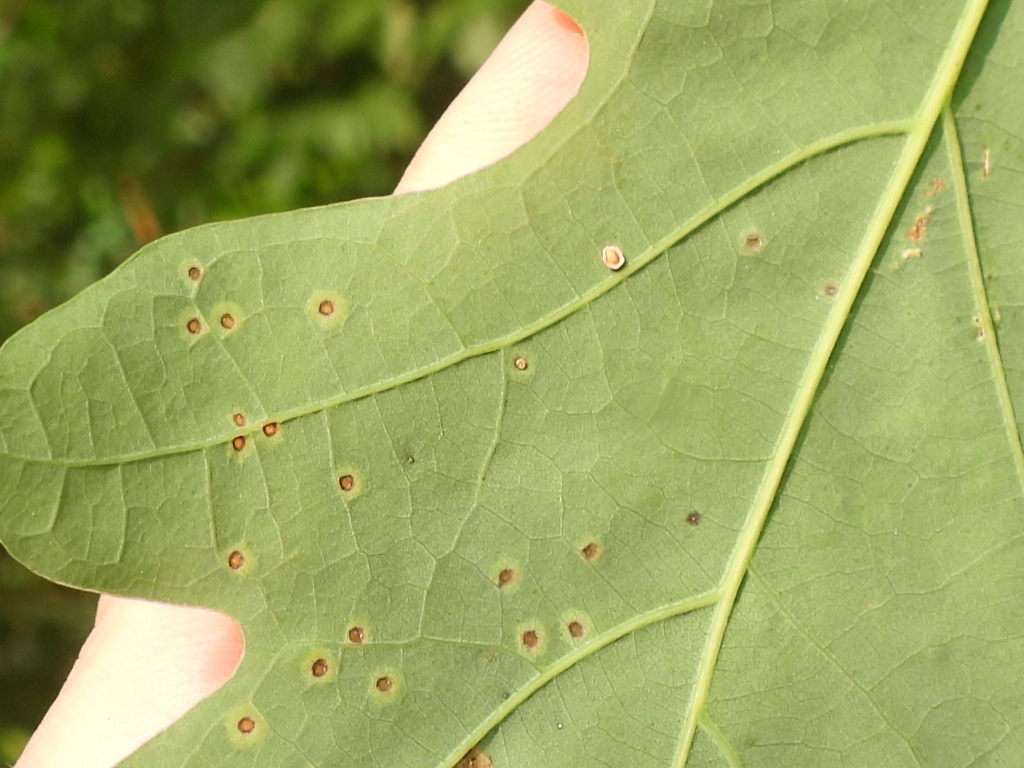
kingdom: Animalia
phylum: Arthropoda
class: Insecta
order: Hymenoptera
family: Cynipidae
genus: Neuroterus
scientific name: Neuroterus
